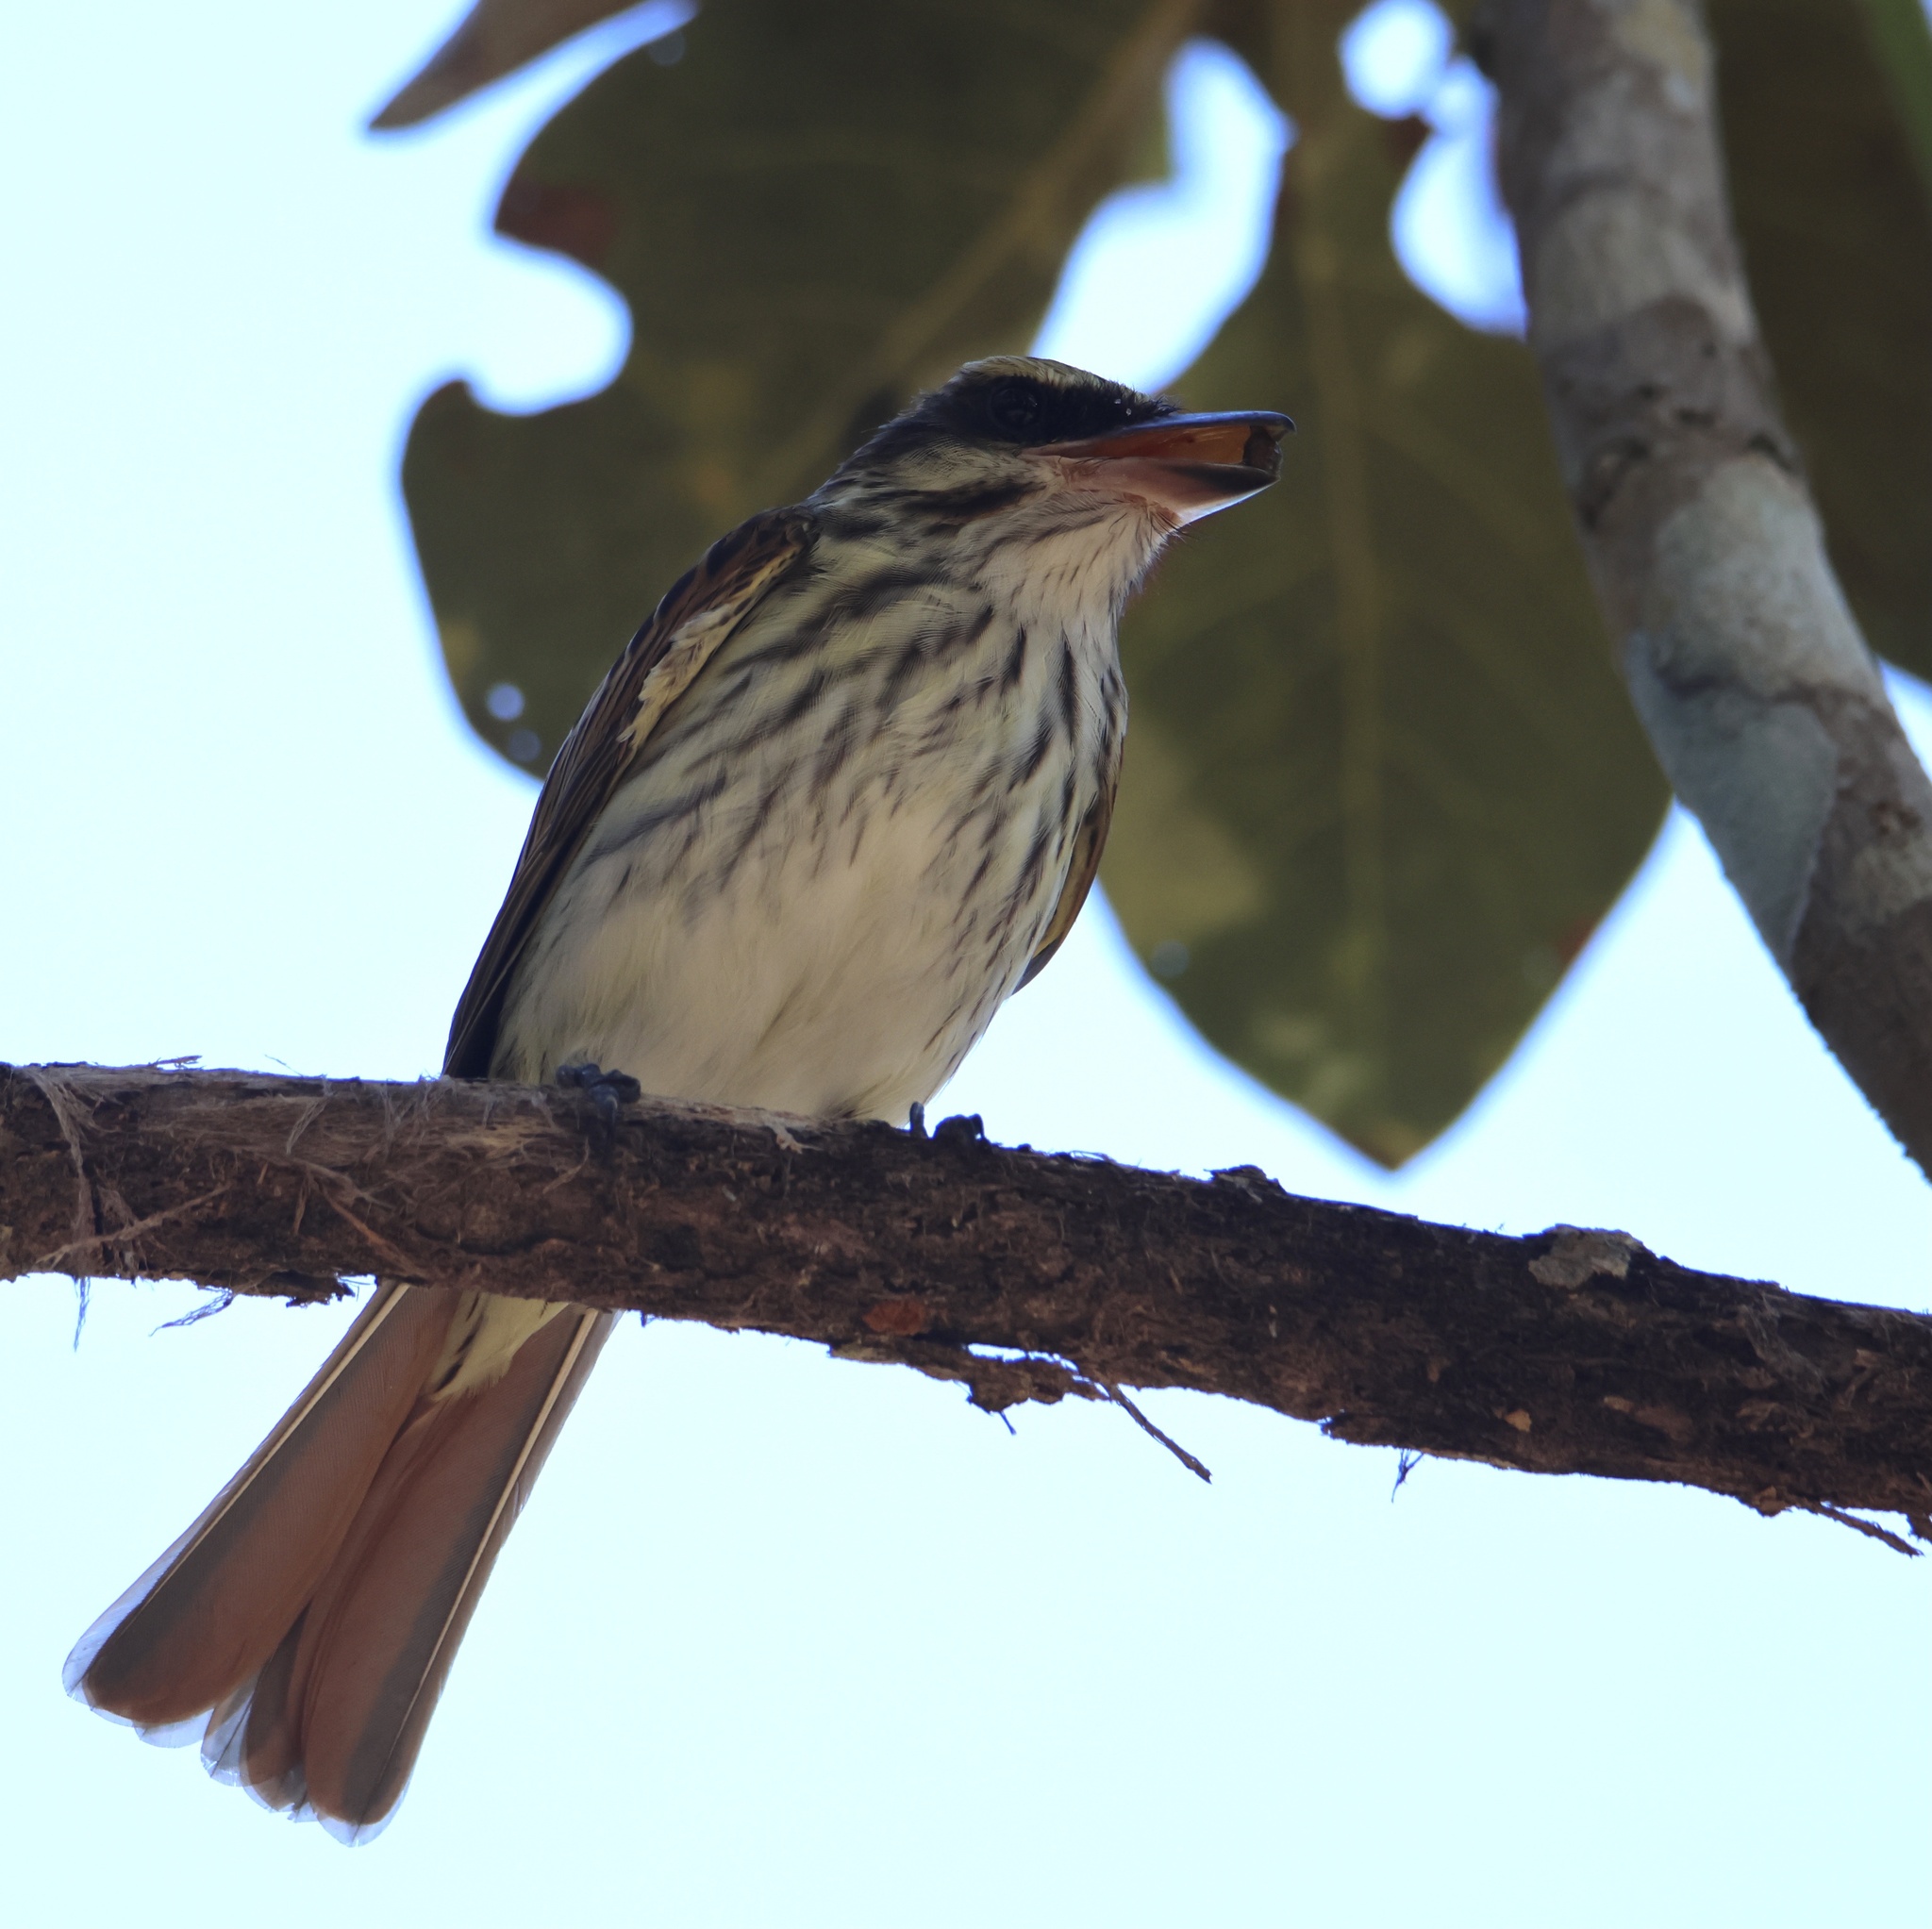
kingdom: Animalia
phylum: Chordata
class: Aves
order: Passeriformes
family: Tyrannidae
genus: Myiodynastes
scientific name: Myiodynastes maculatus
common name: Streaked flycatcher
